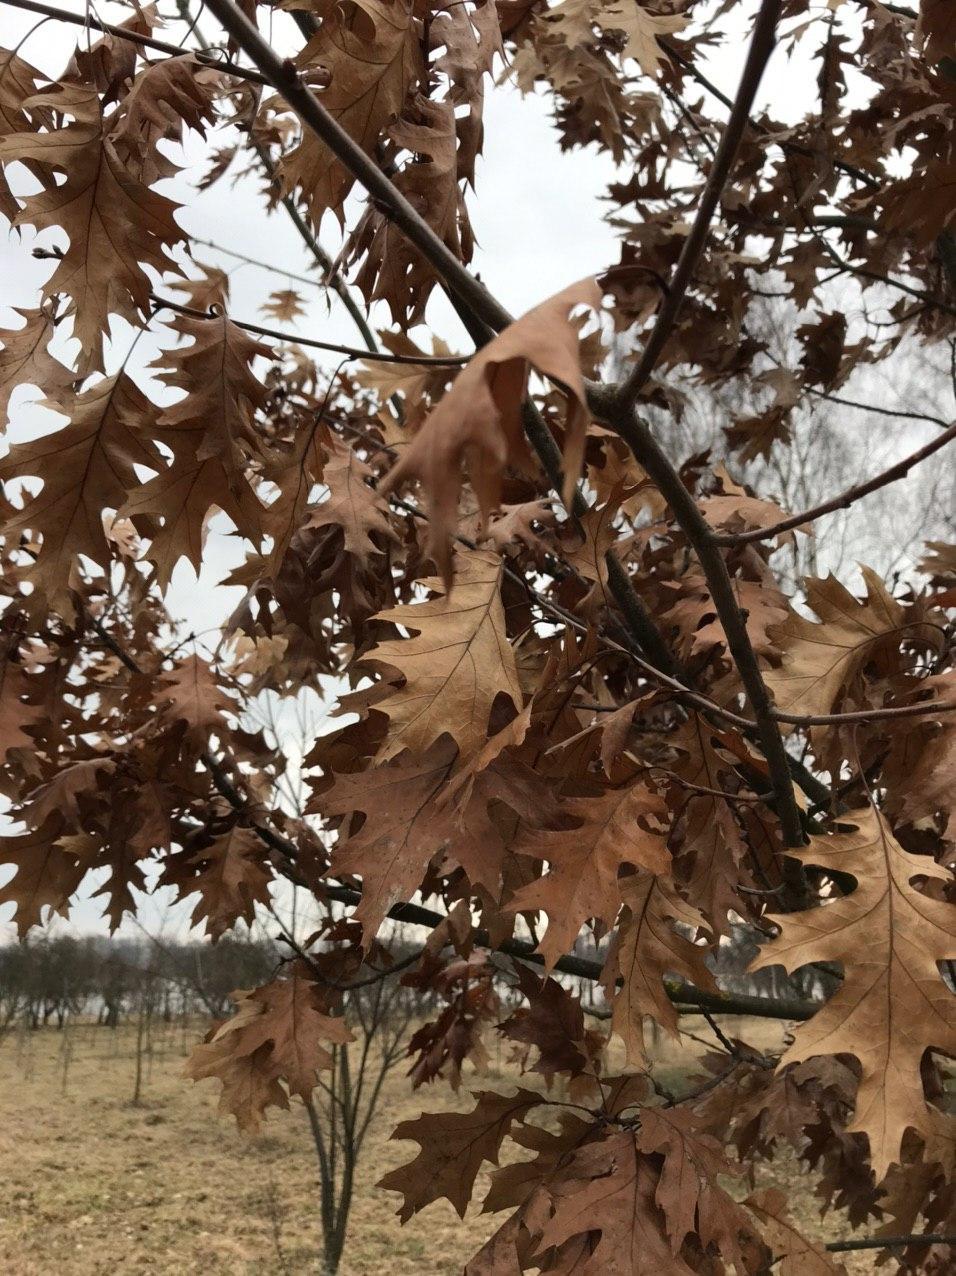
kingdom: Plantae
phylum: Tracheophyta
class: Magnoliopsida
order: Fagales
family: Fagaceae
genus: Quercus
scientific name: Quercus rubra
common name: Red oak
